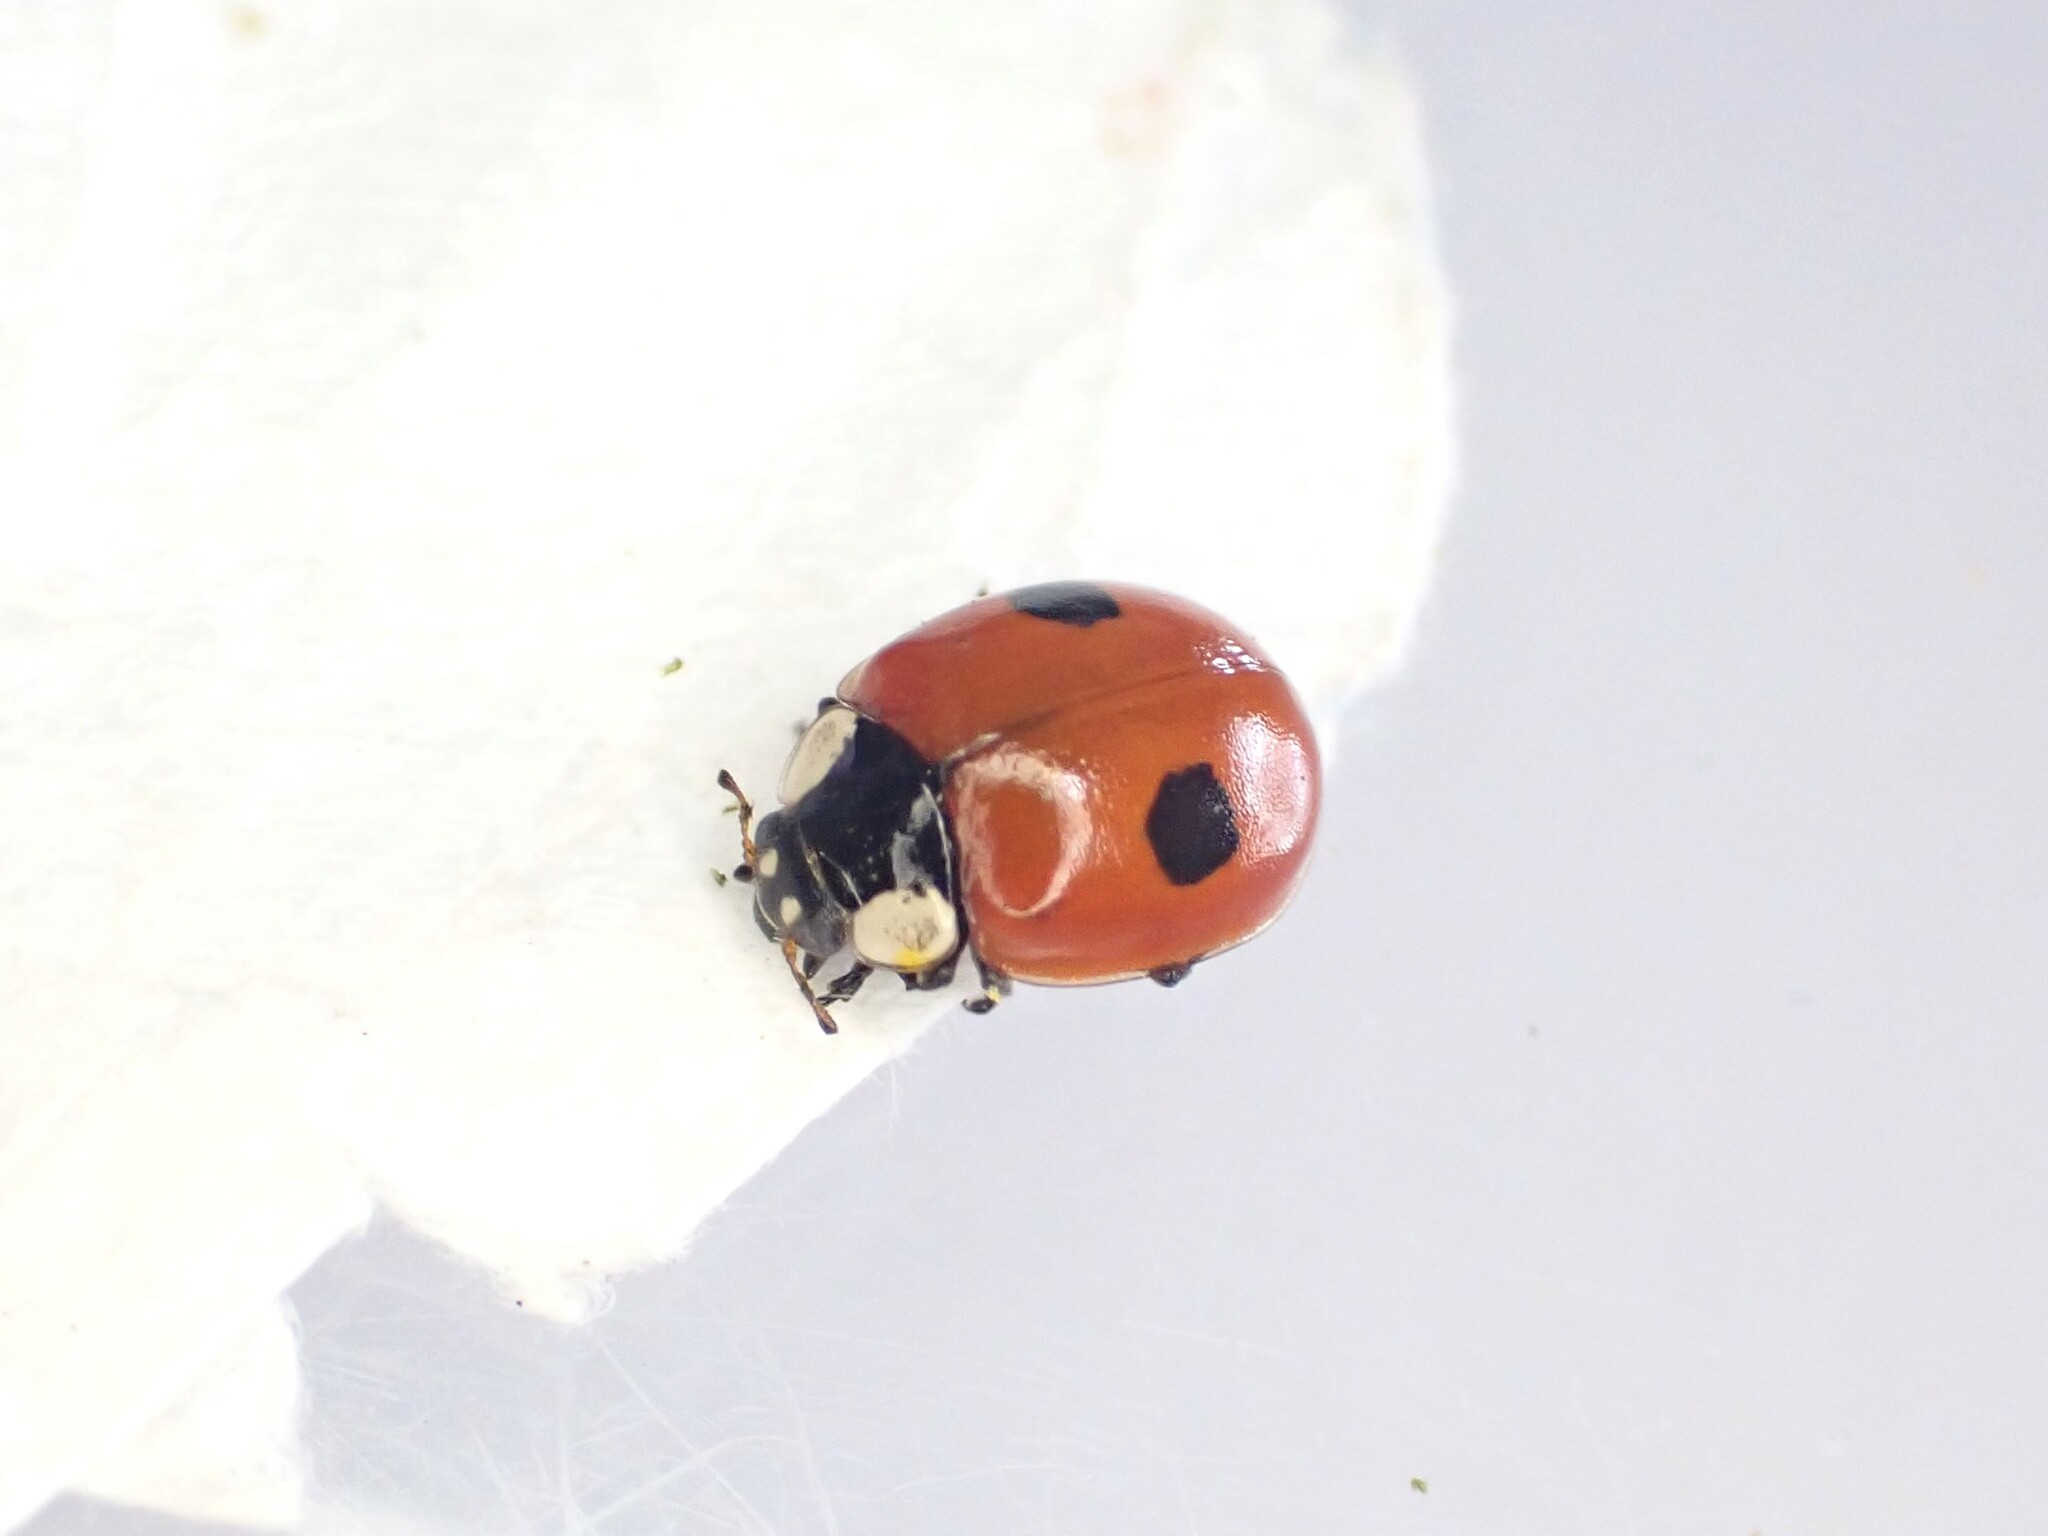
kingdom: Animalia
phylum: Arthropoda
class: Insecta
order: Coleoptera
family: Coccinellidae
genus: Adalia
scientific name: Adalia bipunctata
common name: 2-spot ladybird
